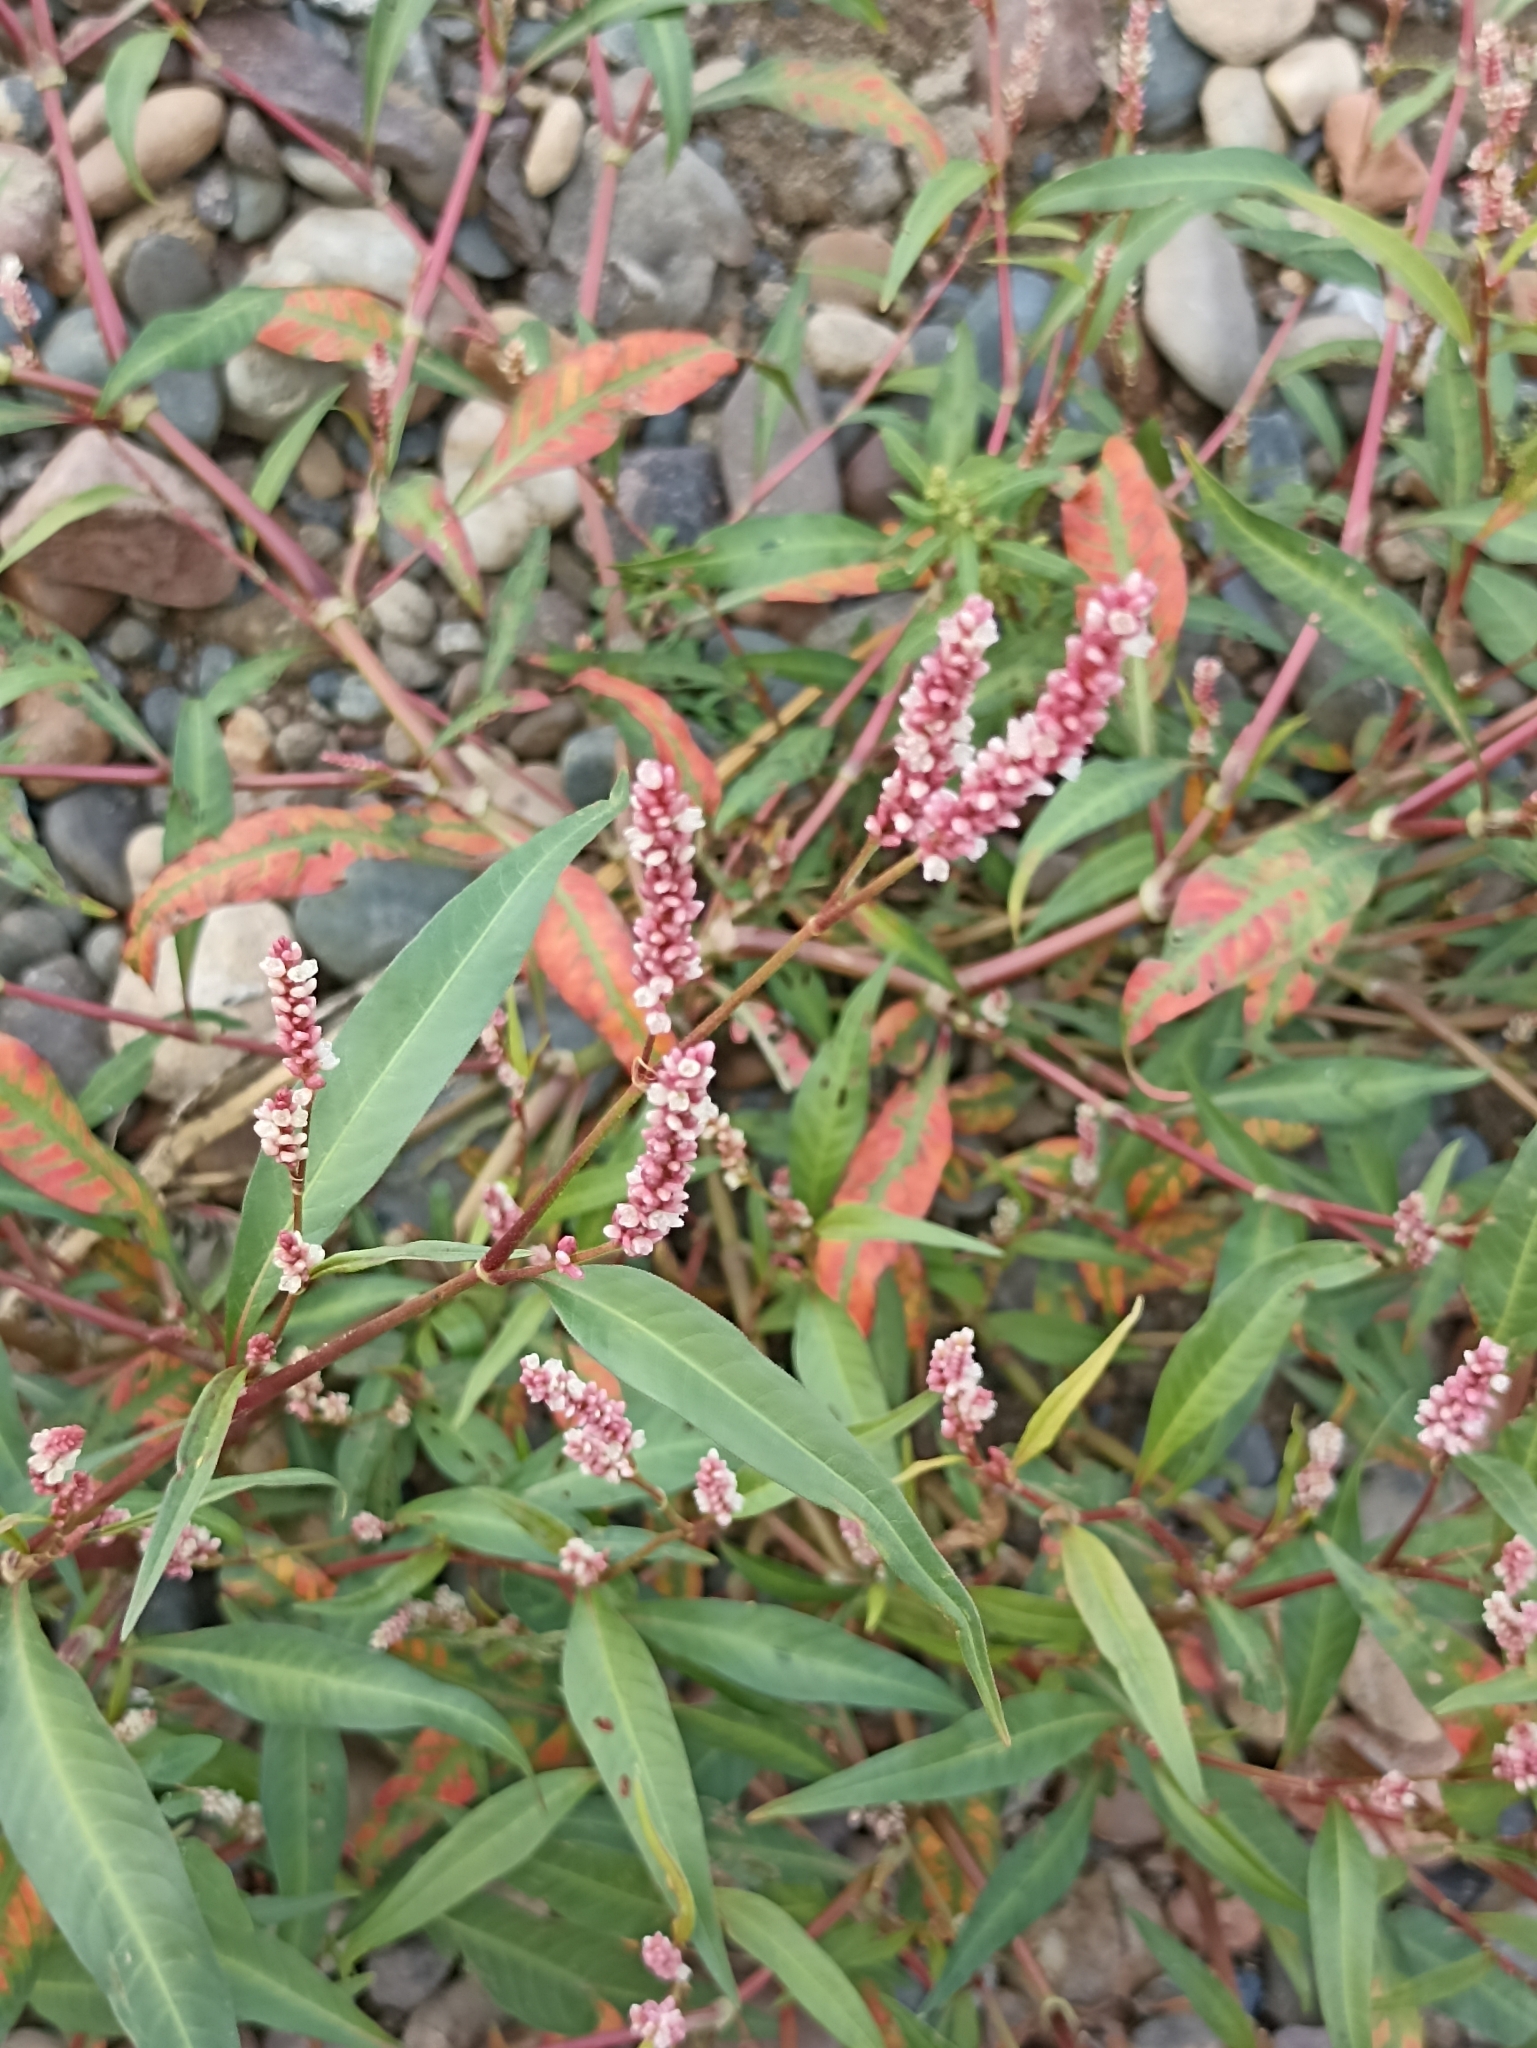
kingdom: Plantae
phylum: Tracheophyta
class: Magnoliopsida
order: Caryophyllales
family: Polygonaceae
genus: Persicaria
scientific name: Persicaria lapathifolia
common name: Curlytop knotweed
